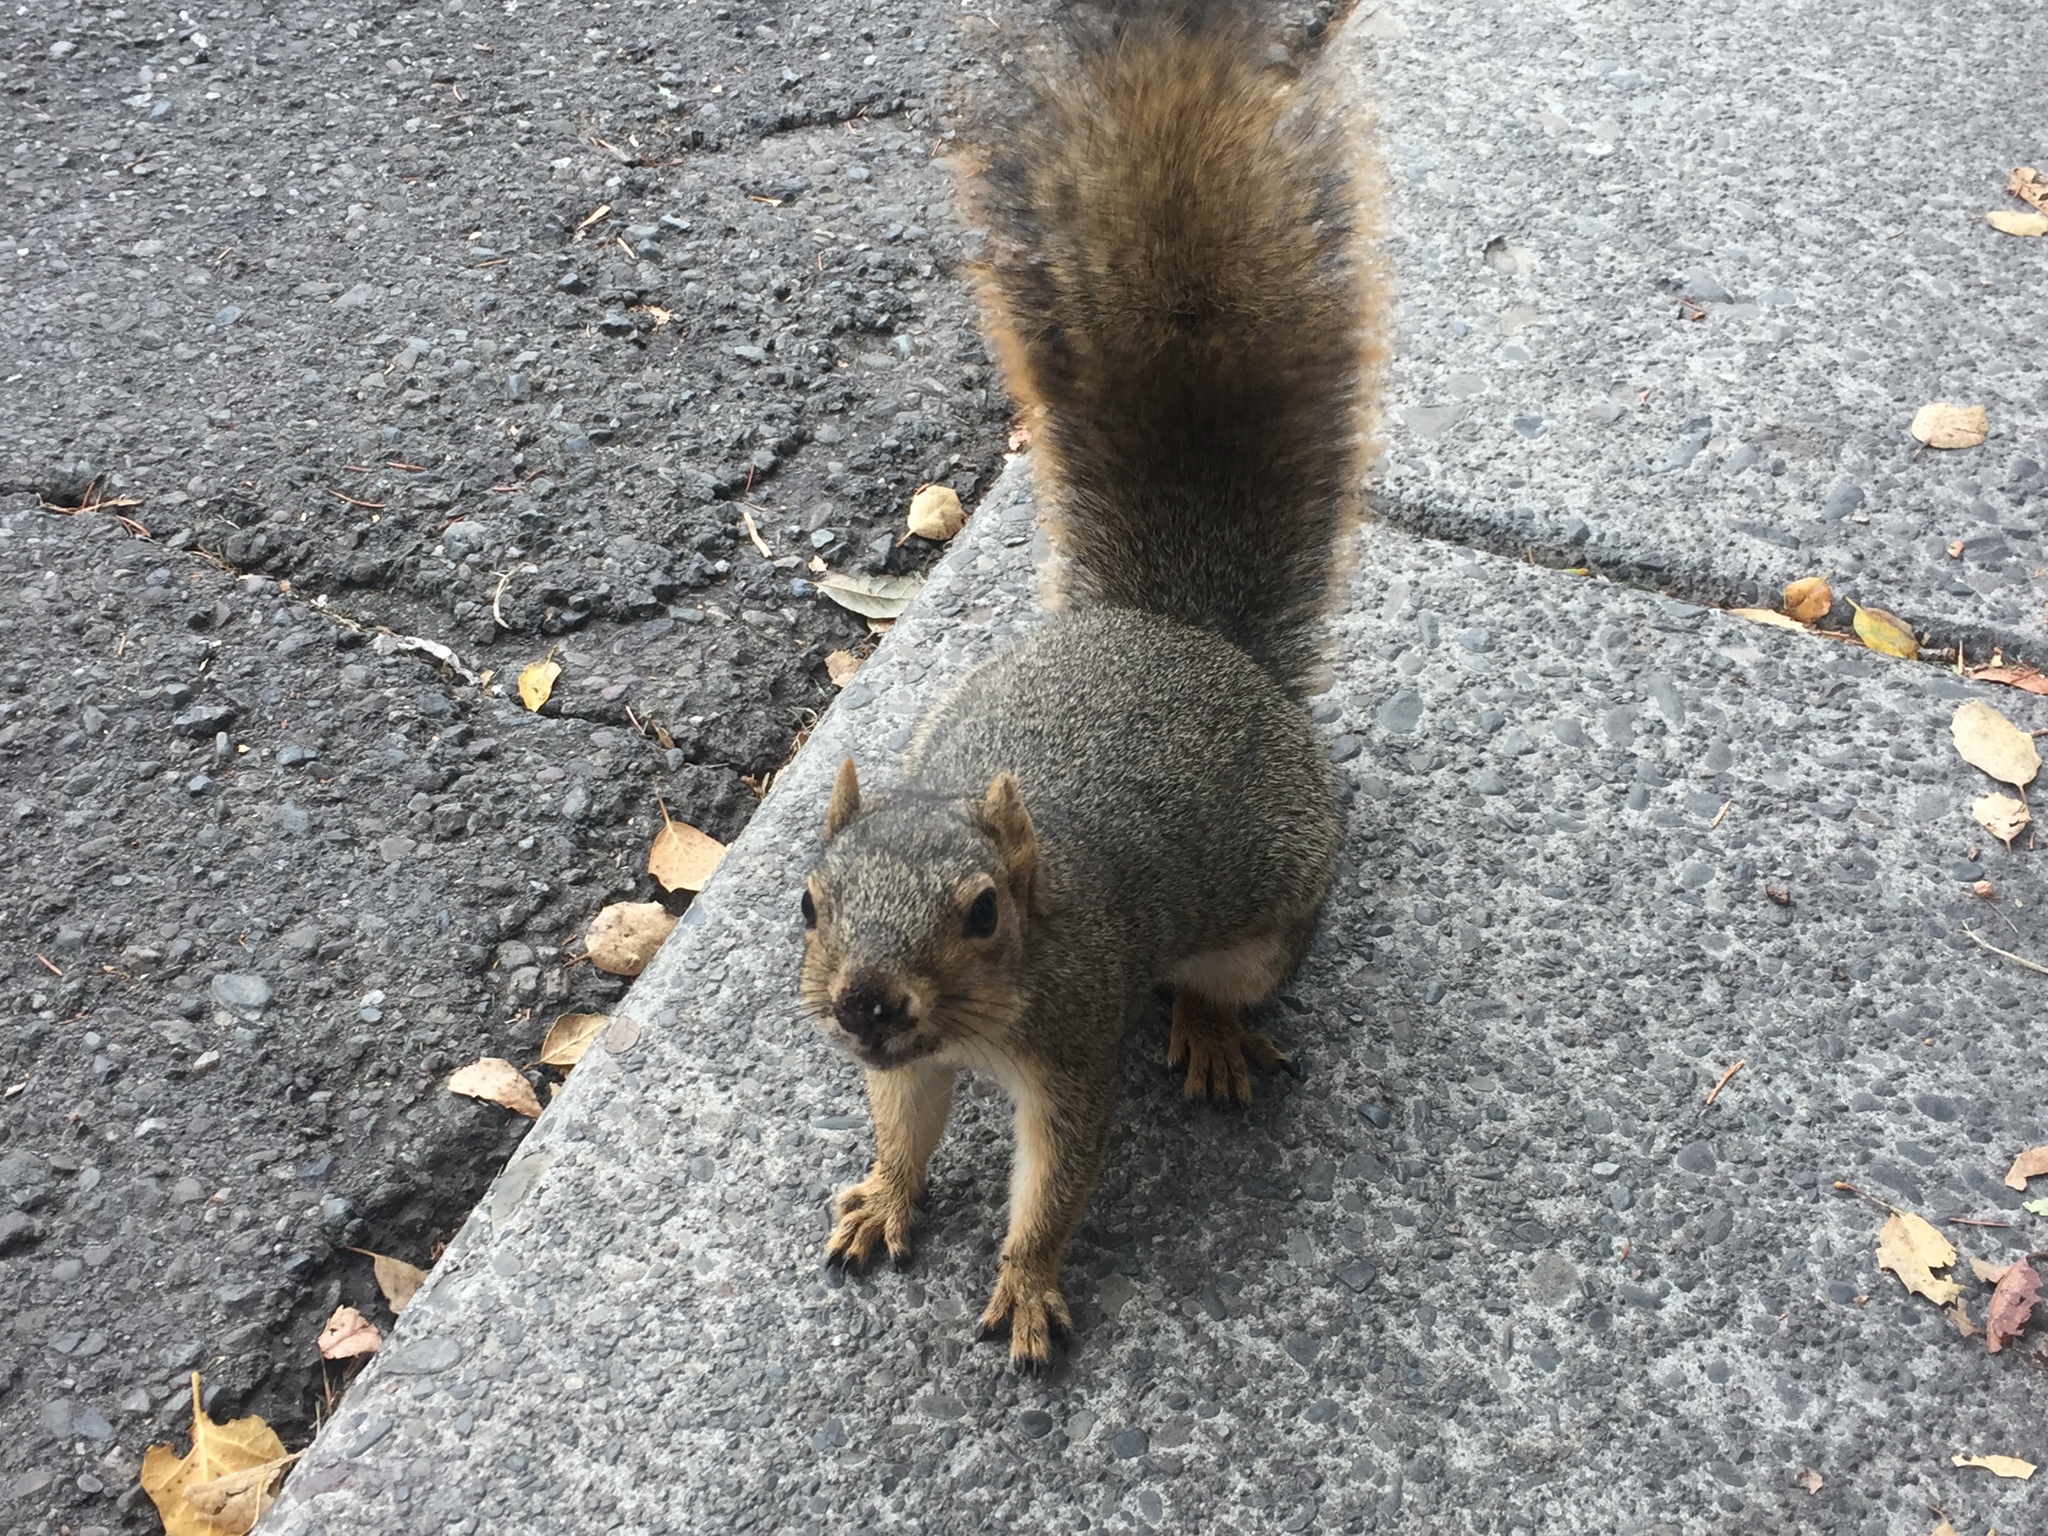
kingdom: Animalia
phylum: Chordata
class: Mammalia
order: Rodentia
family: Sciuridae
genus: Sciurus
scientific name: Sciurus niger
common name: Fox squirrel
